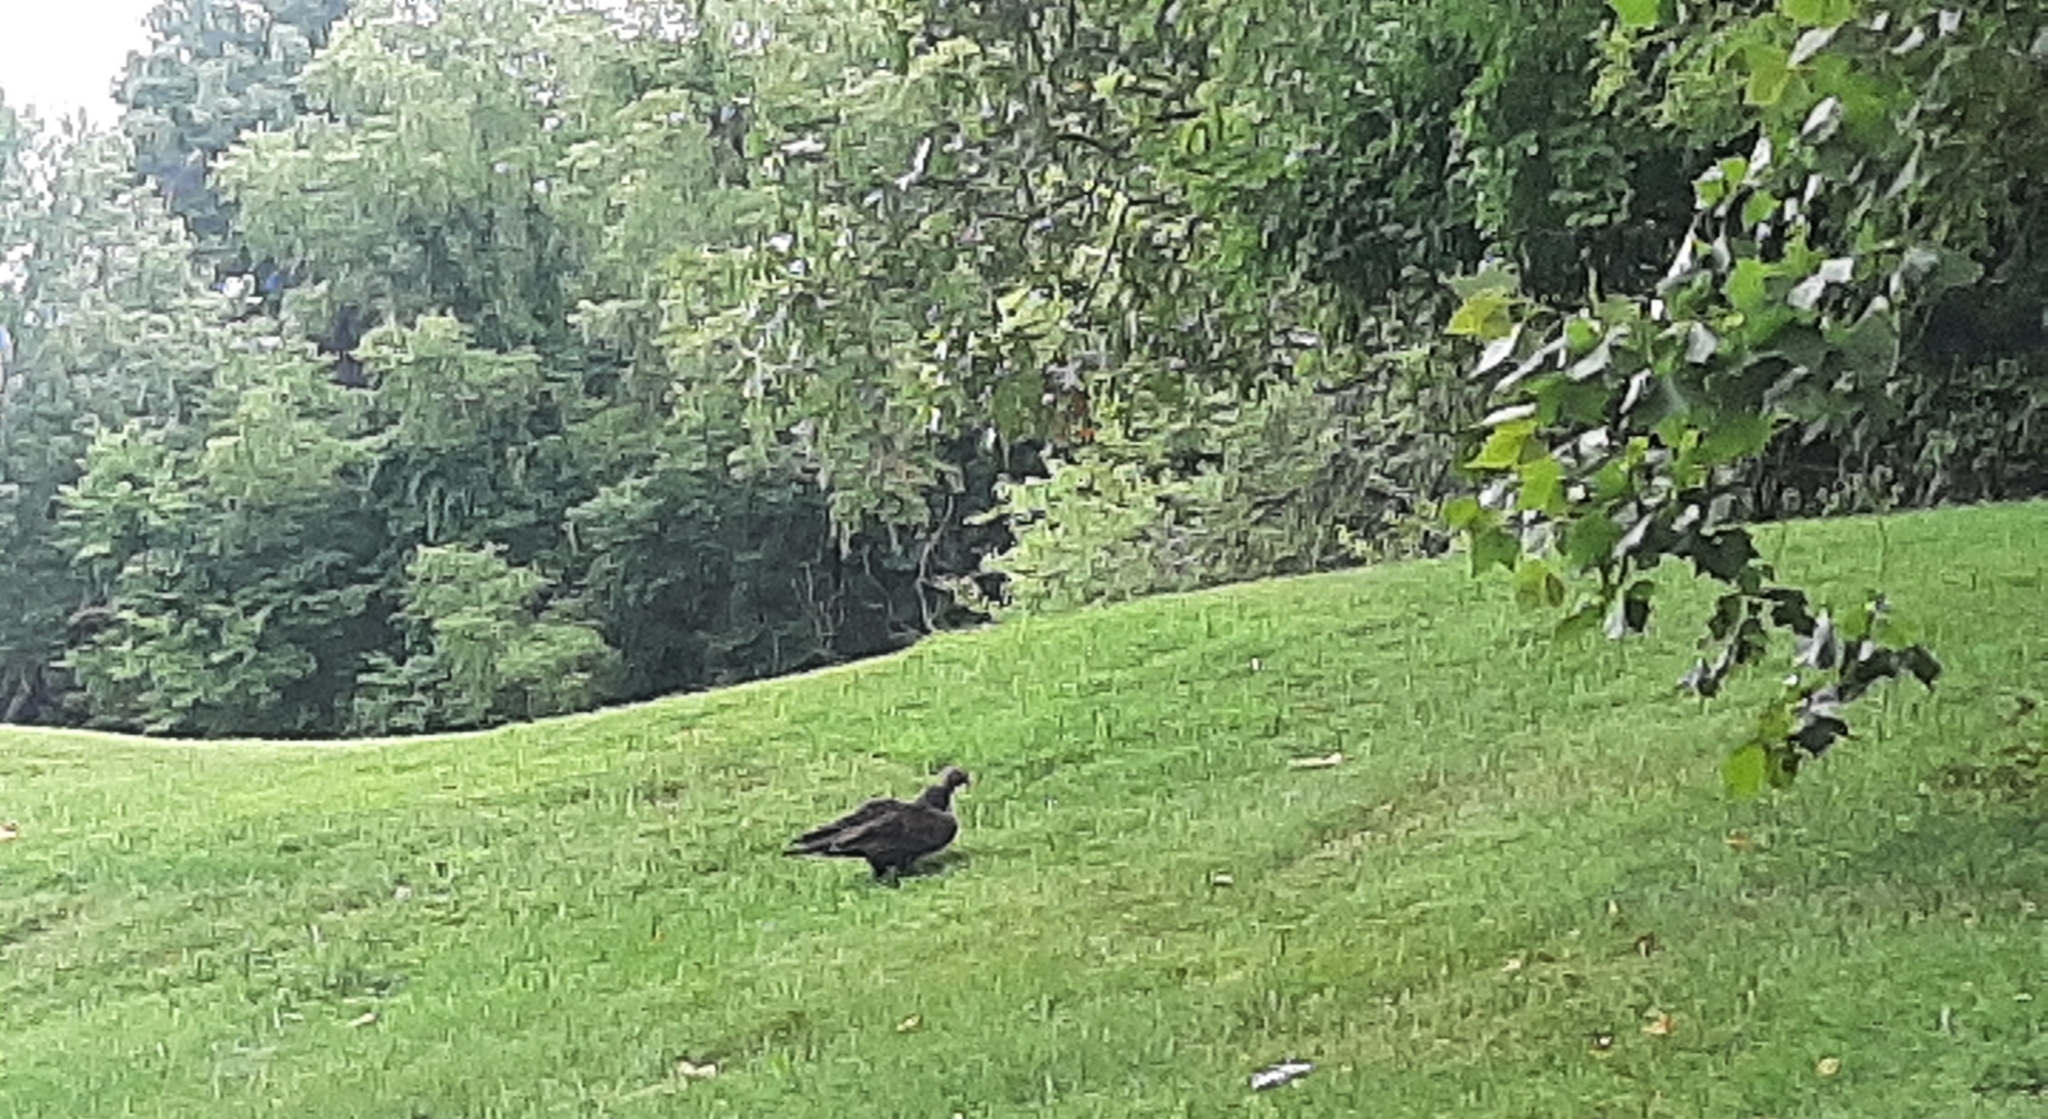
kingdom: Animalia
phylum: Chordata
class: Aves
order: Accipitriformes
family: Cathartidae
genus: Cathartes
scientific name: Cathartes aura
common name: Turkey vulture
